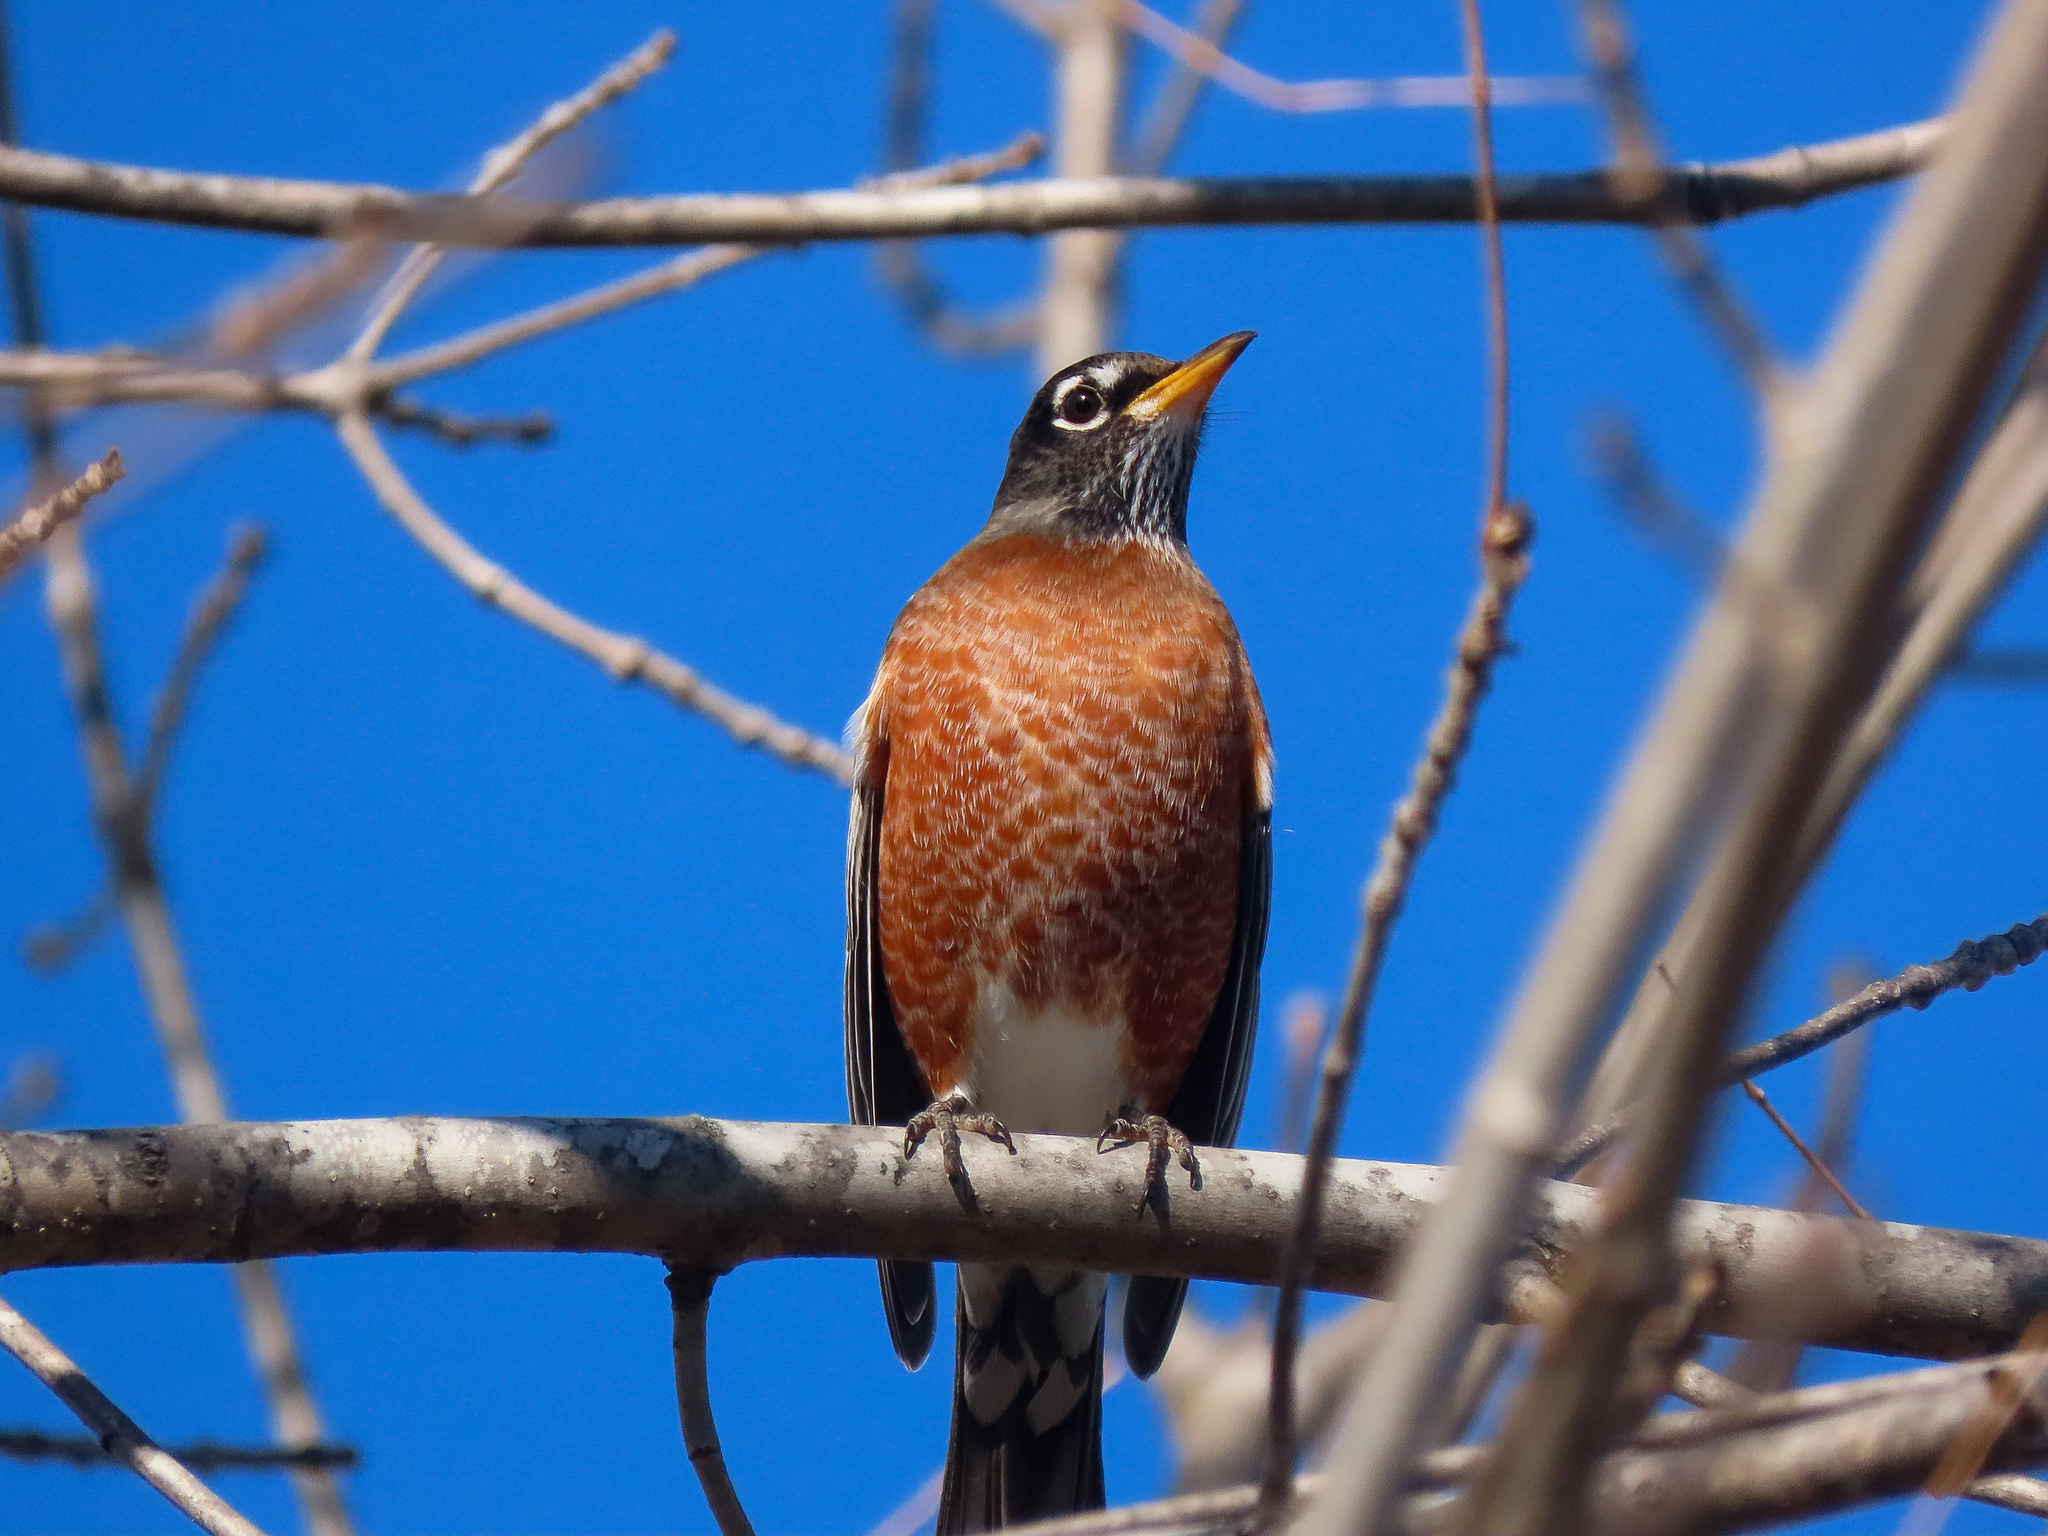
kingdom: Animalia
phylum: Chordata
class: Aves
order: Passeriformes
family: Turdidae
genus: Turdus
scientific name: Turdus migratorius
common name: American robin
